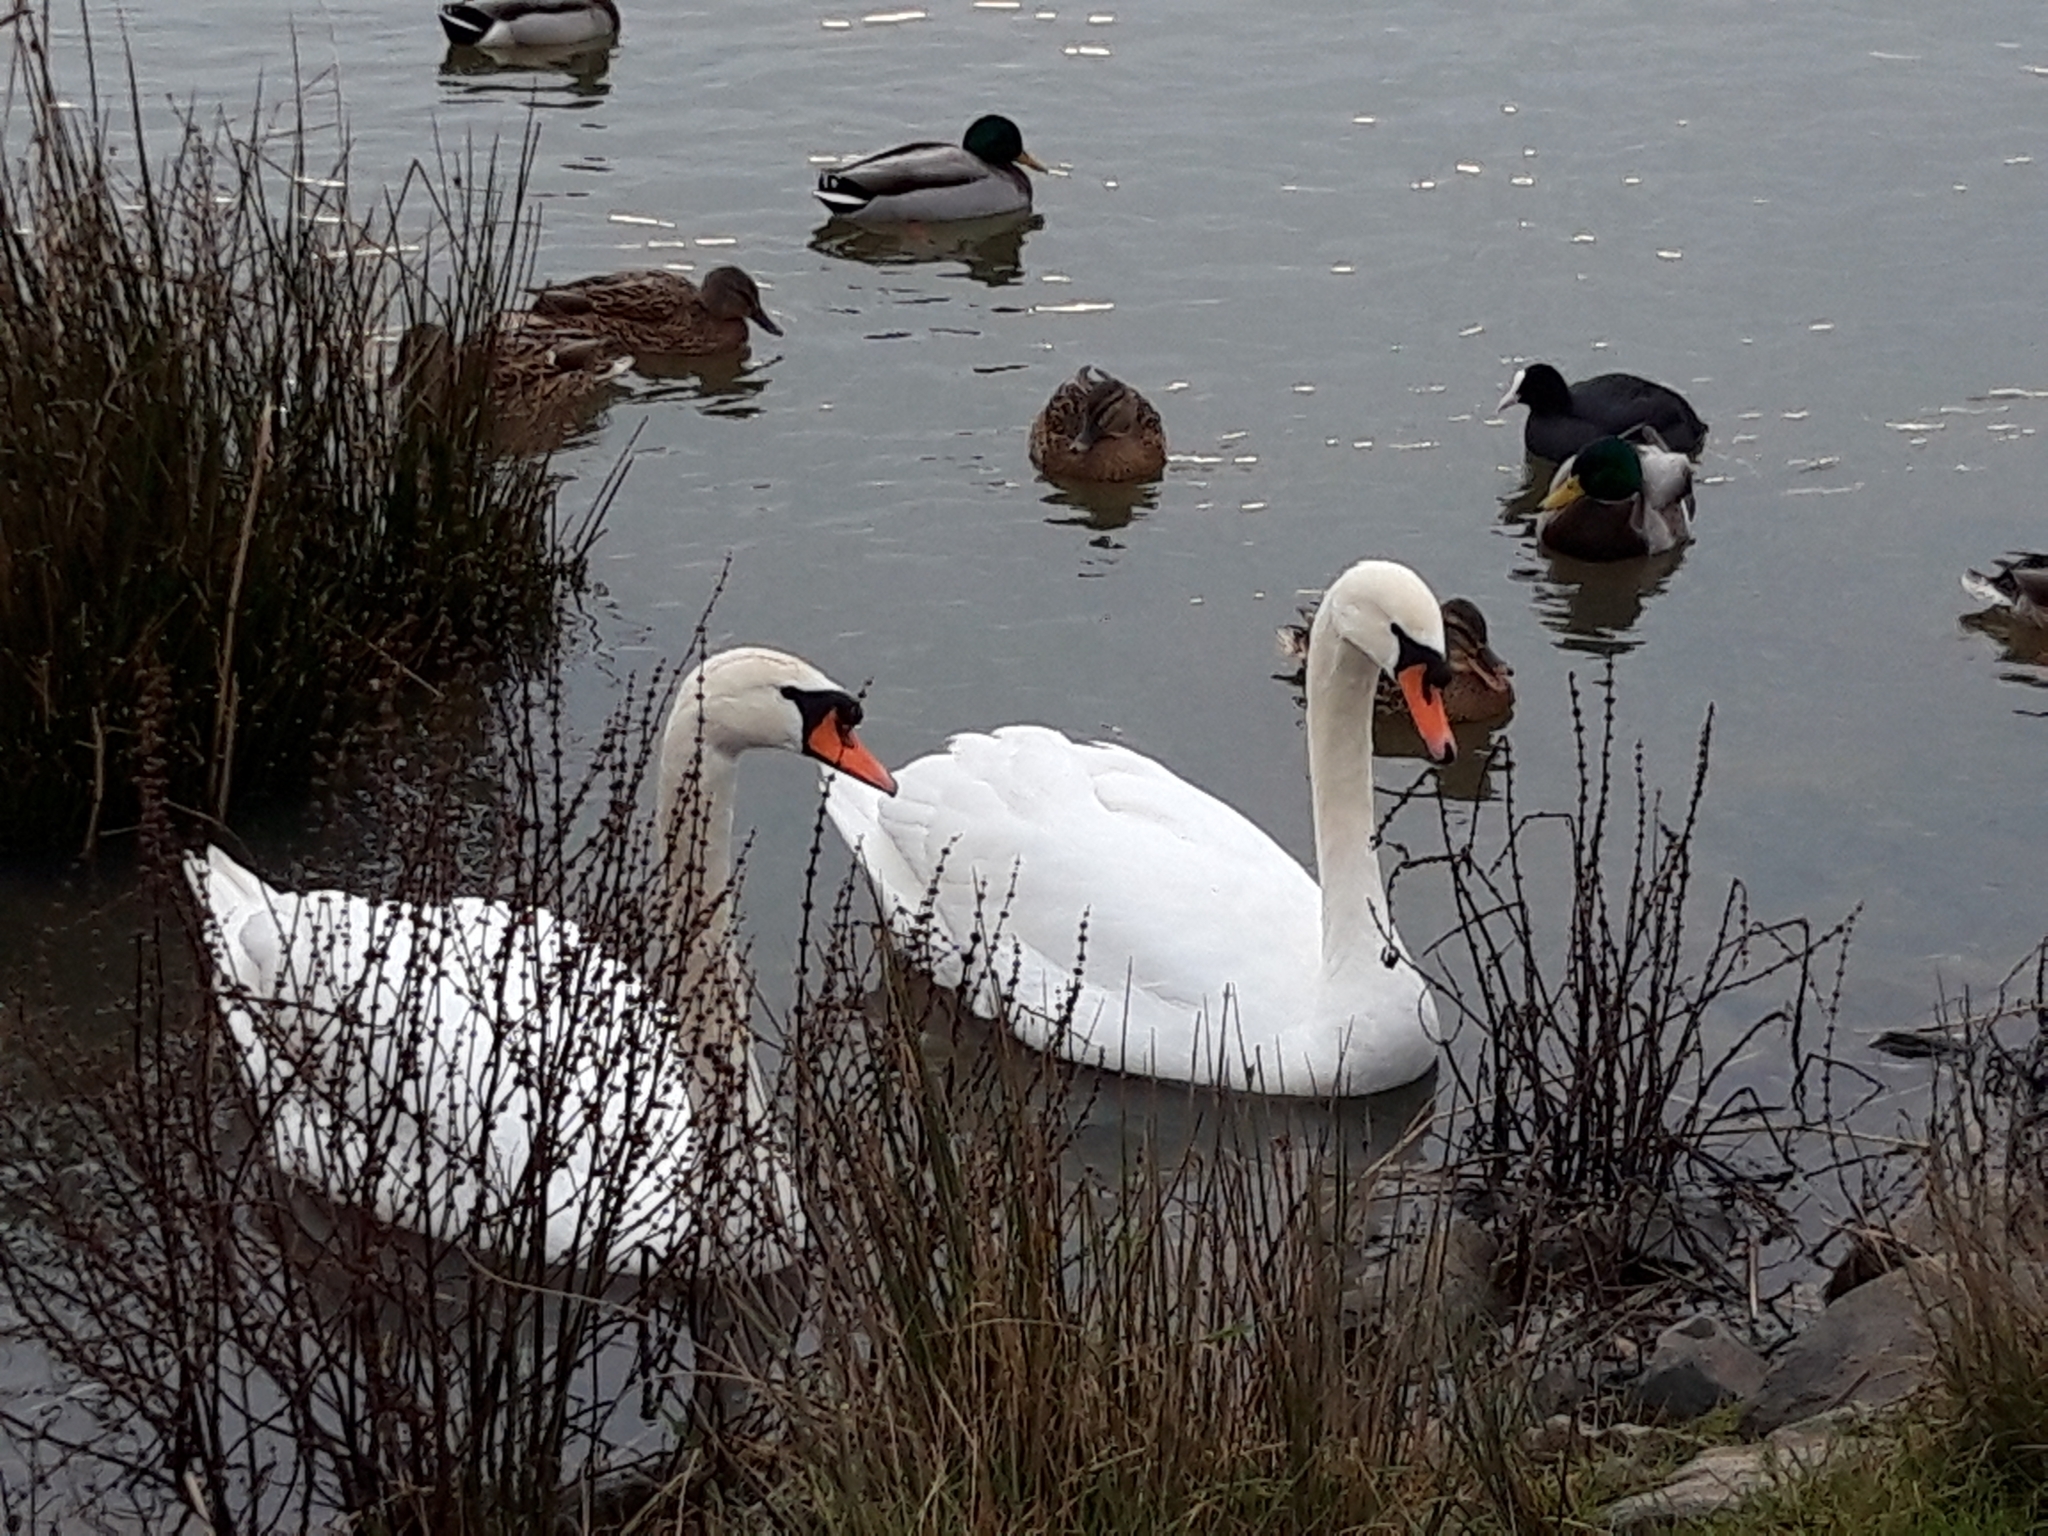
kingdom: Animalia
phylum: Chordata
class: Aves
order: Anseriformes
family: Anatidae
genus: Cygnus
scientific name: Cygnus olor
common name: Mute swan
